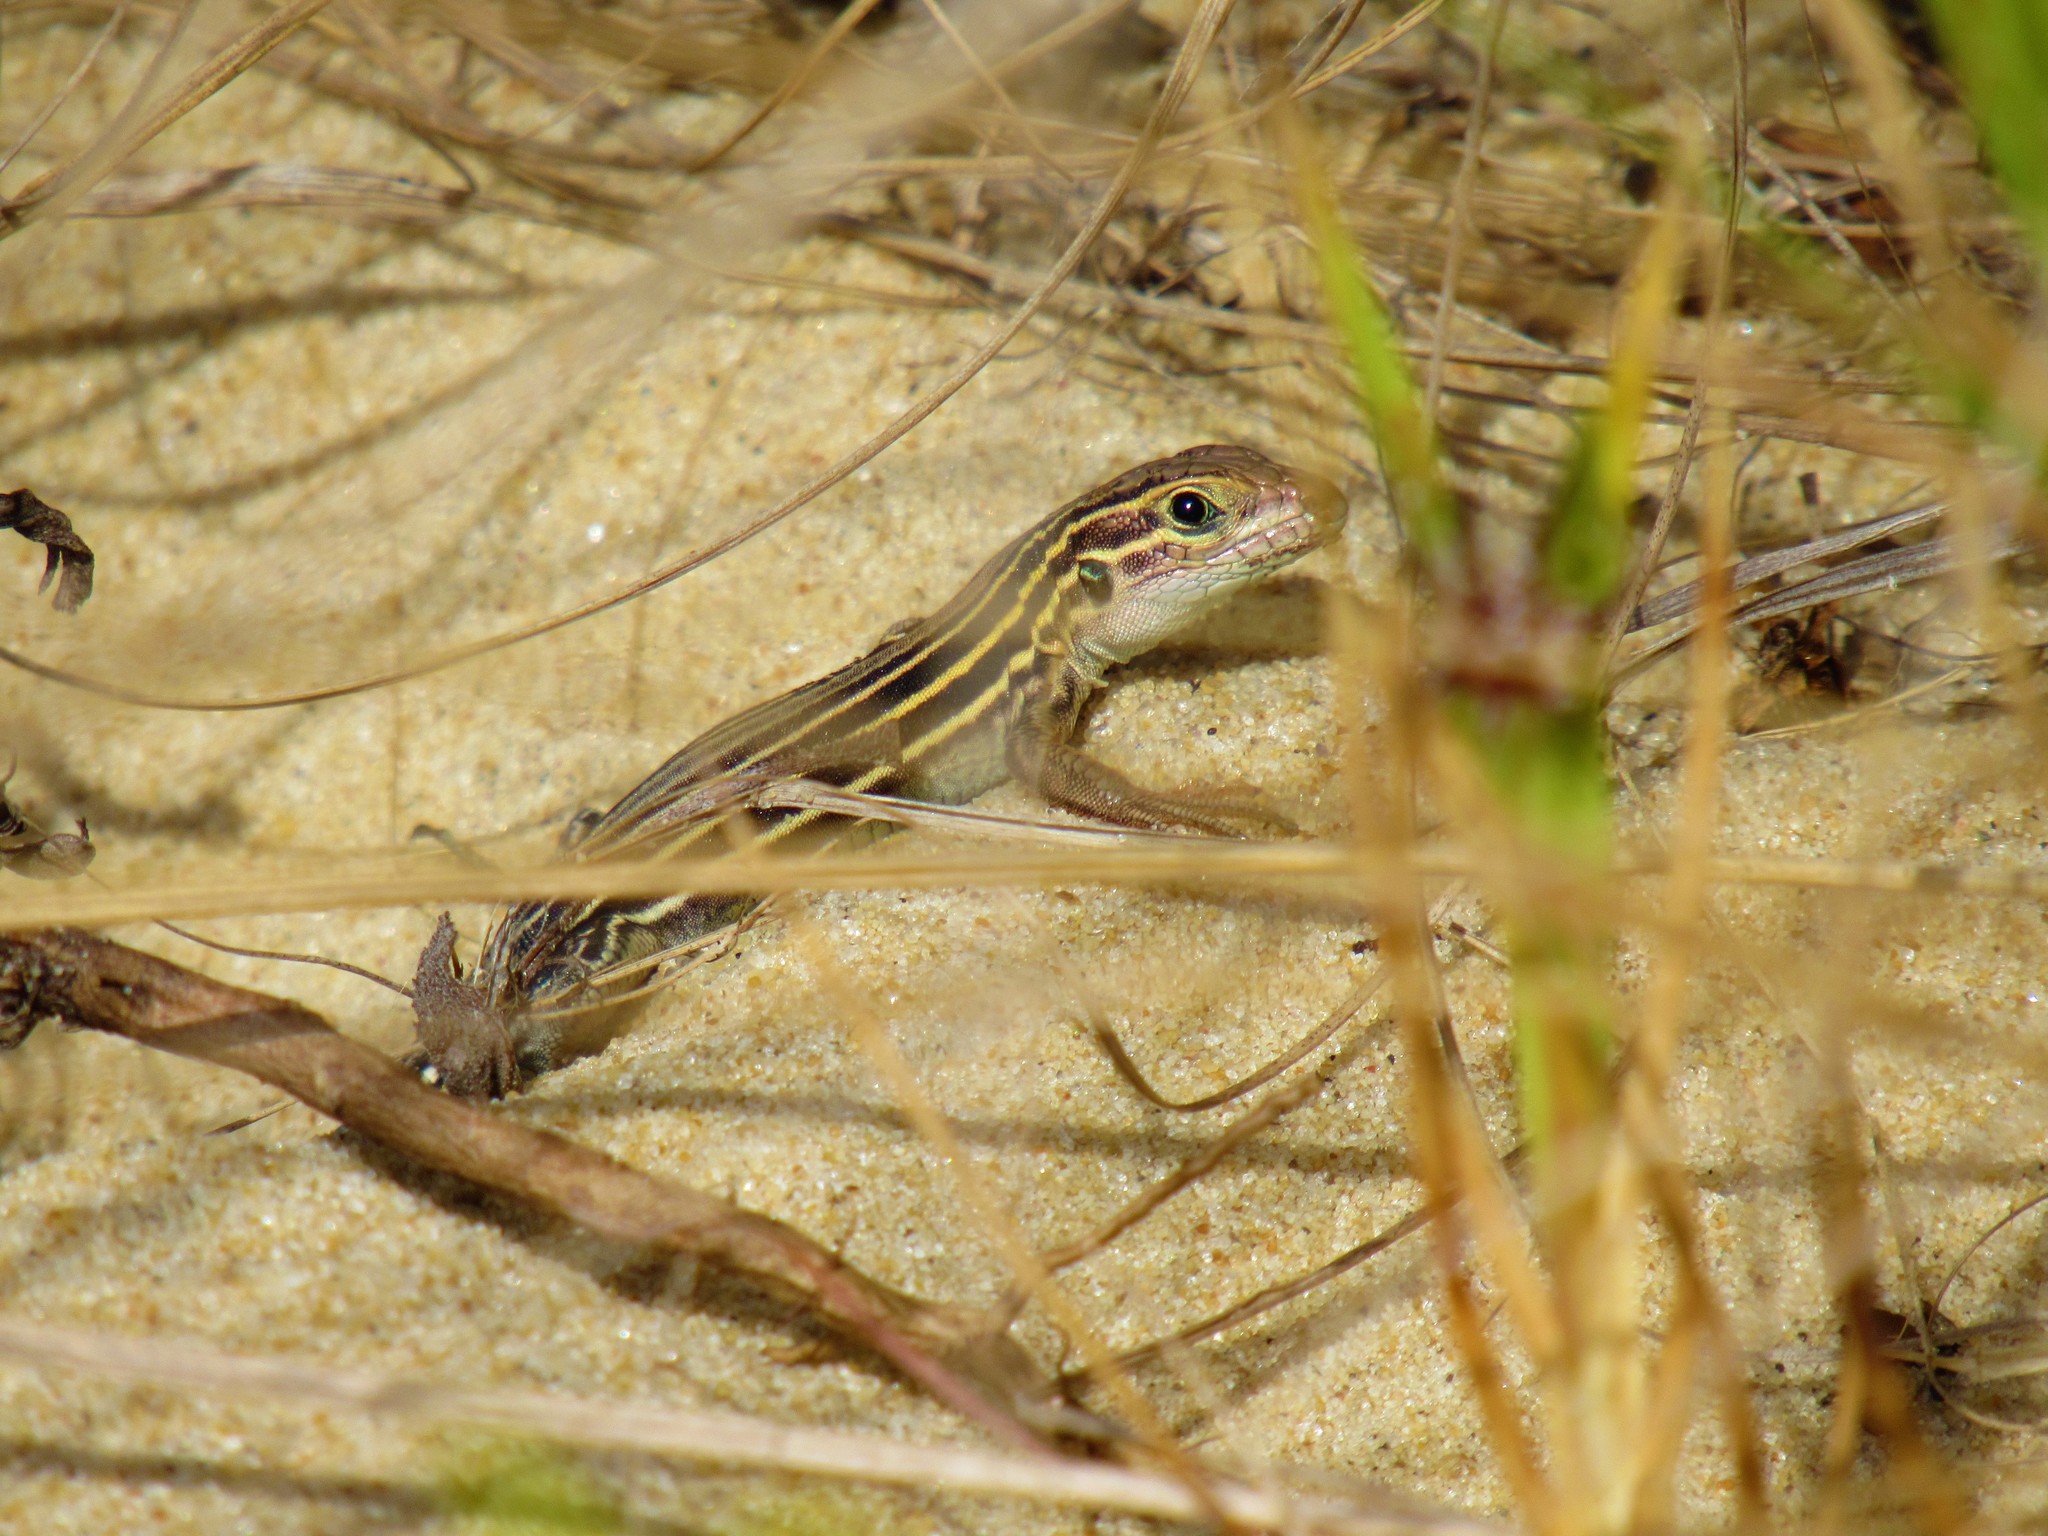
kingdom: Animalia
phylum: Chordata
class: Squamata
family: Teiidae
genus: Aspidoscelis
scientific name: Aspidoscelis sexlineatus
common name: Six-lined racerunner
